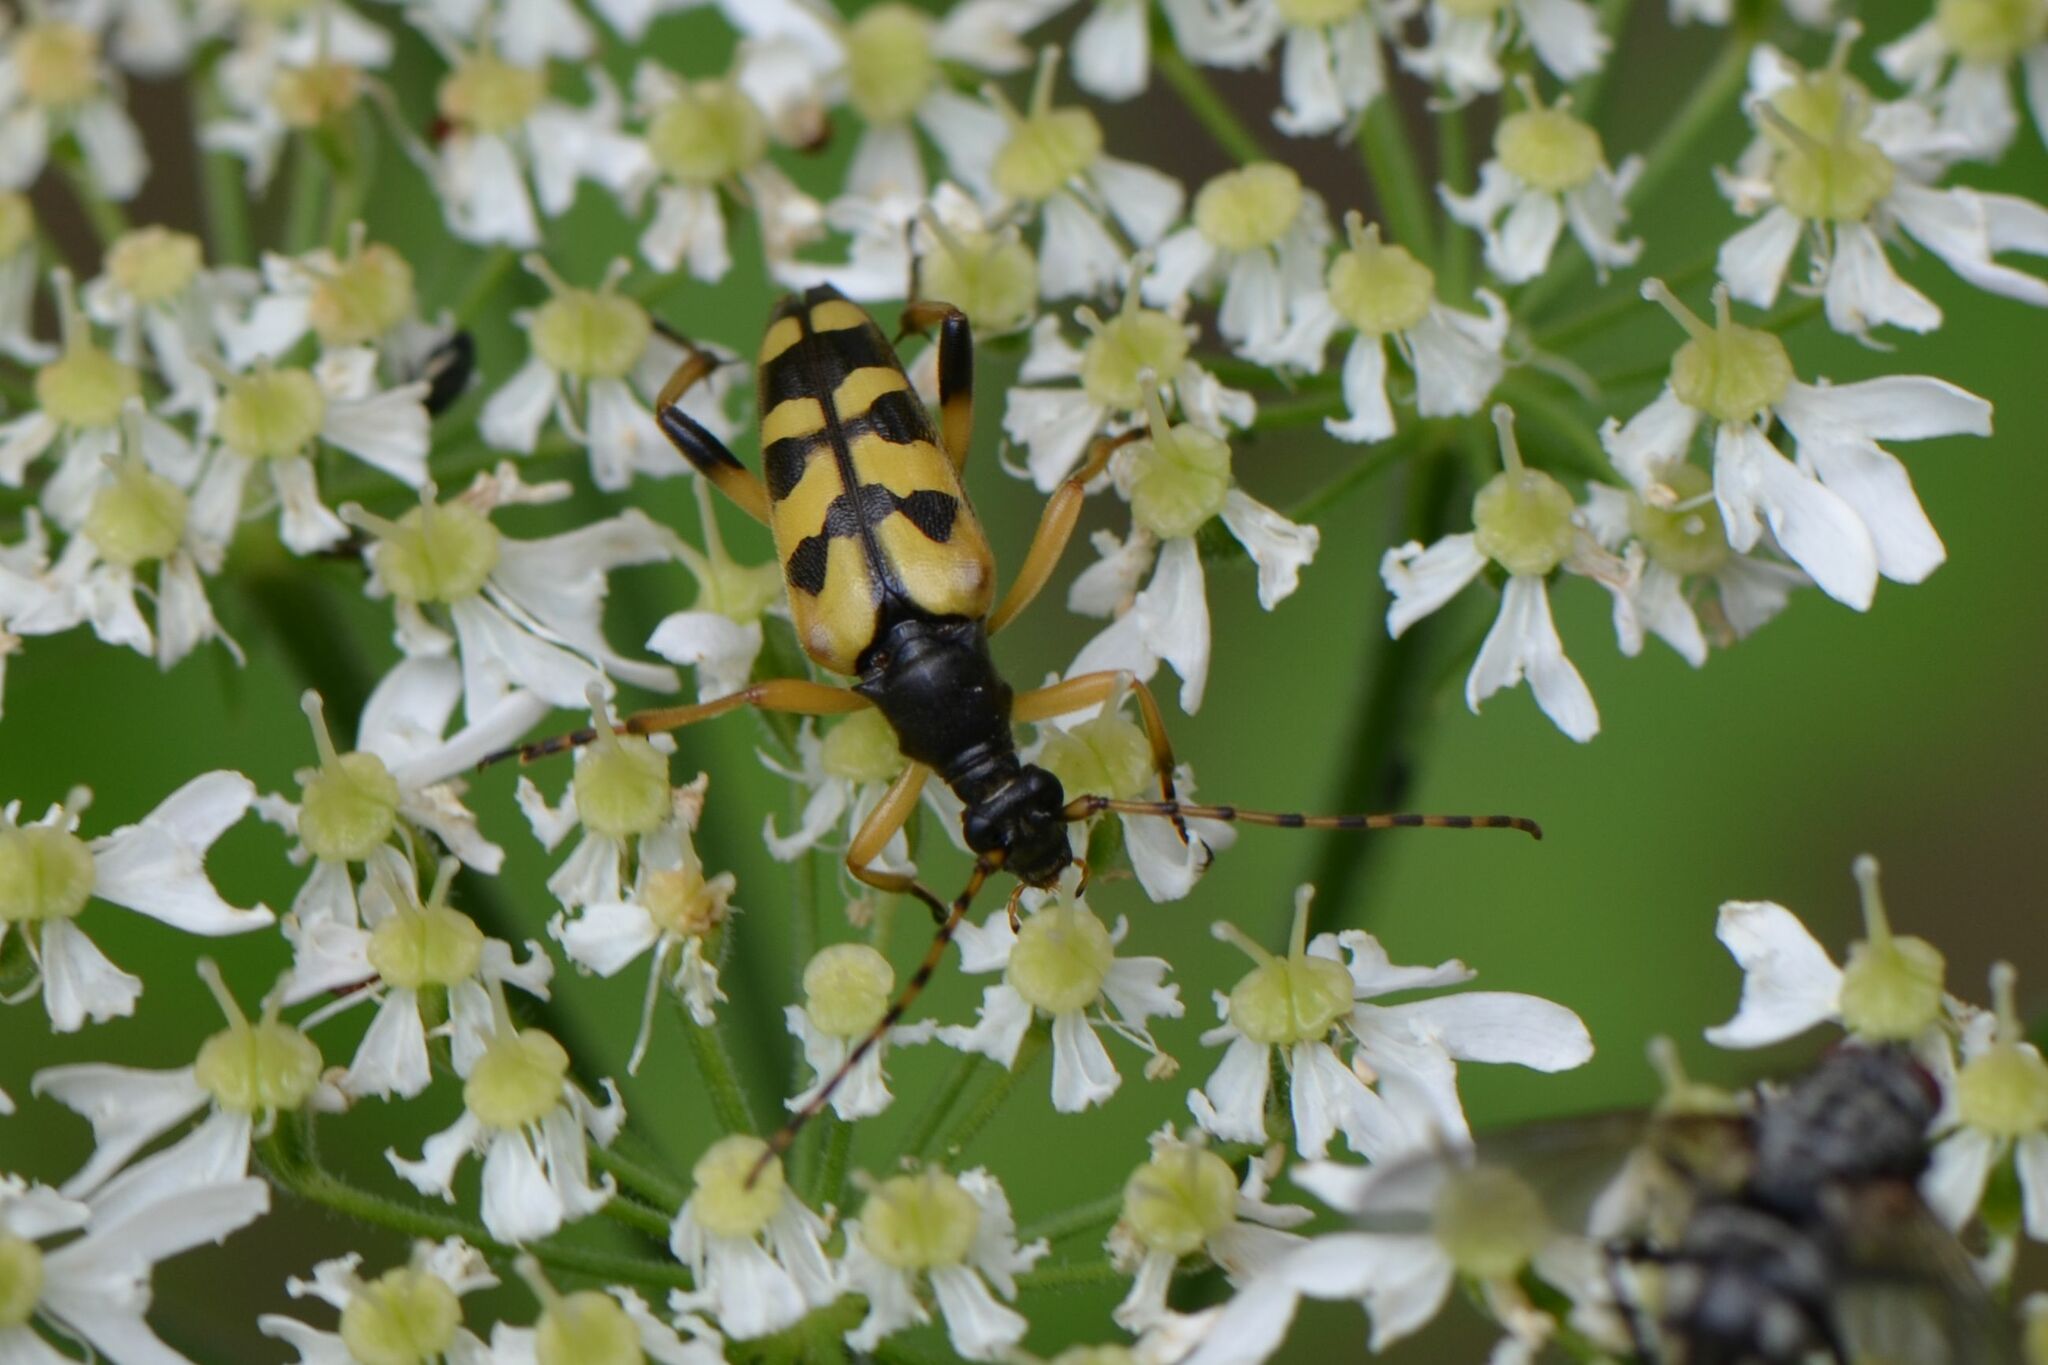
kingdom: Animalia
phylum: Arthropoda
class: Insecta
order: Coleoptera
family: Cerambycidae
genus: Rutpela
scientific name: Rutpela maculata
